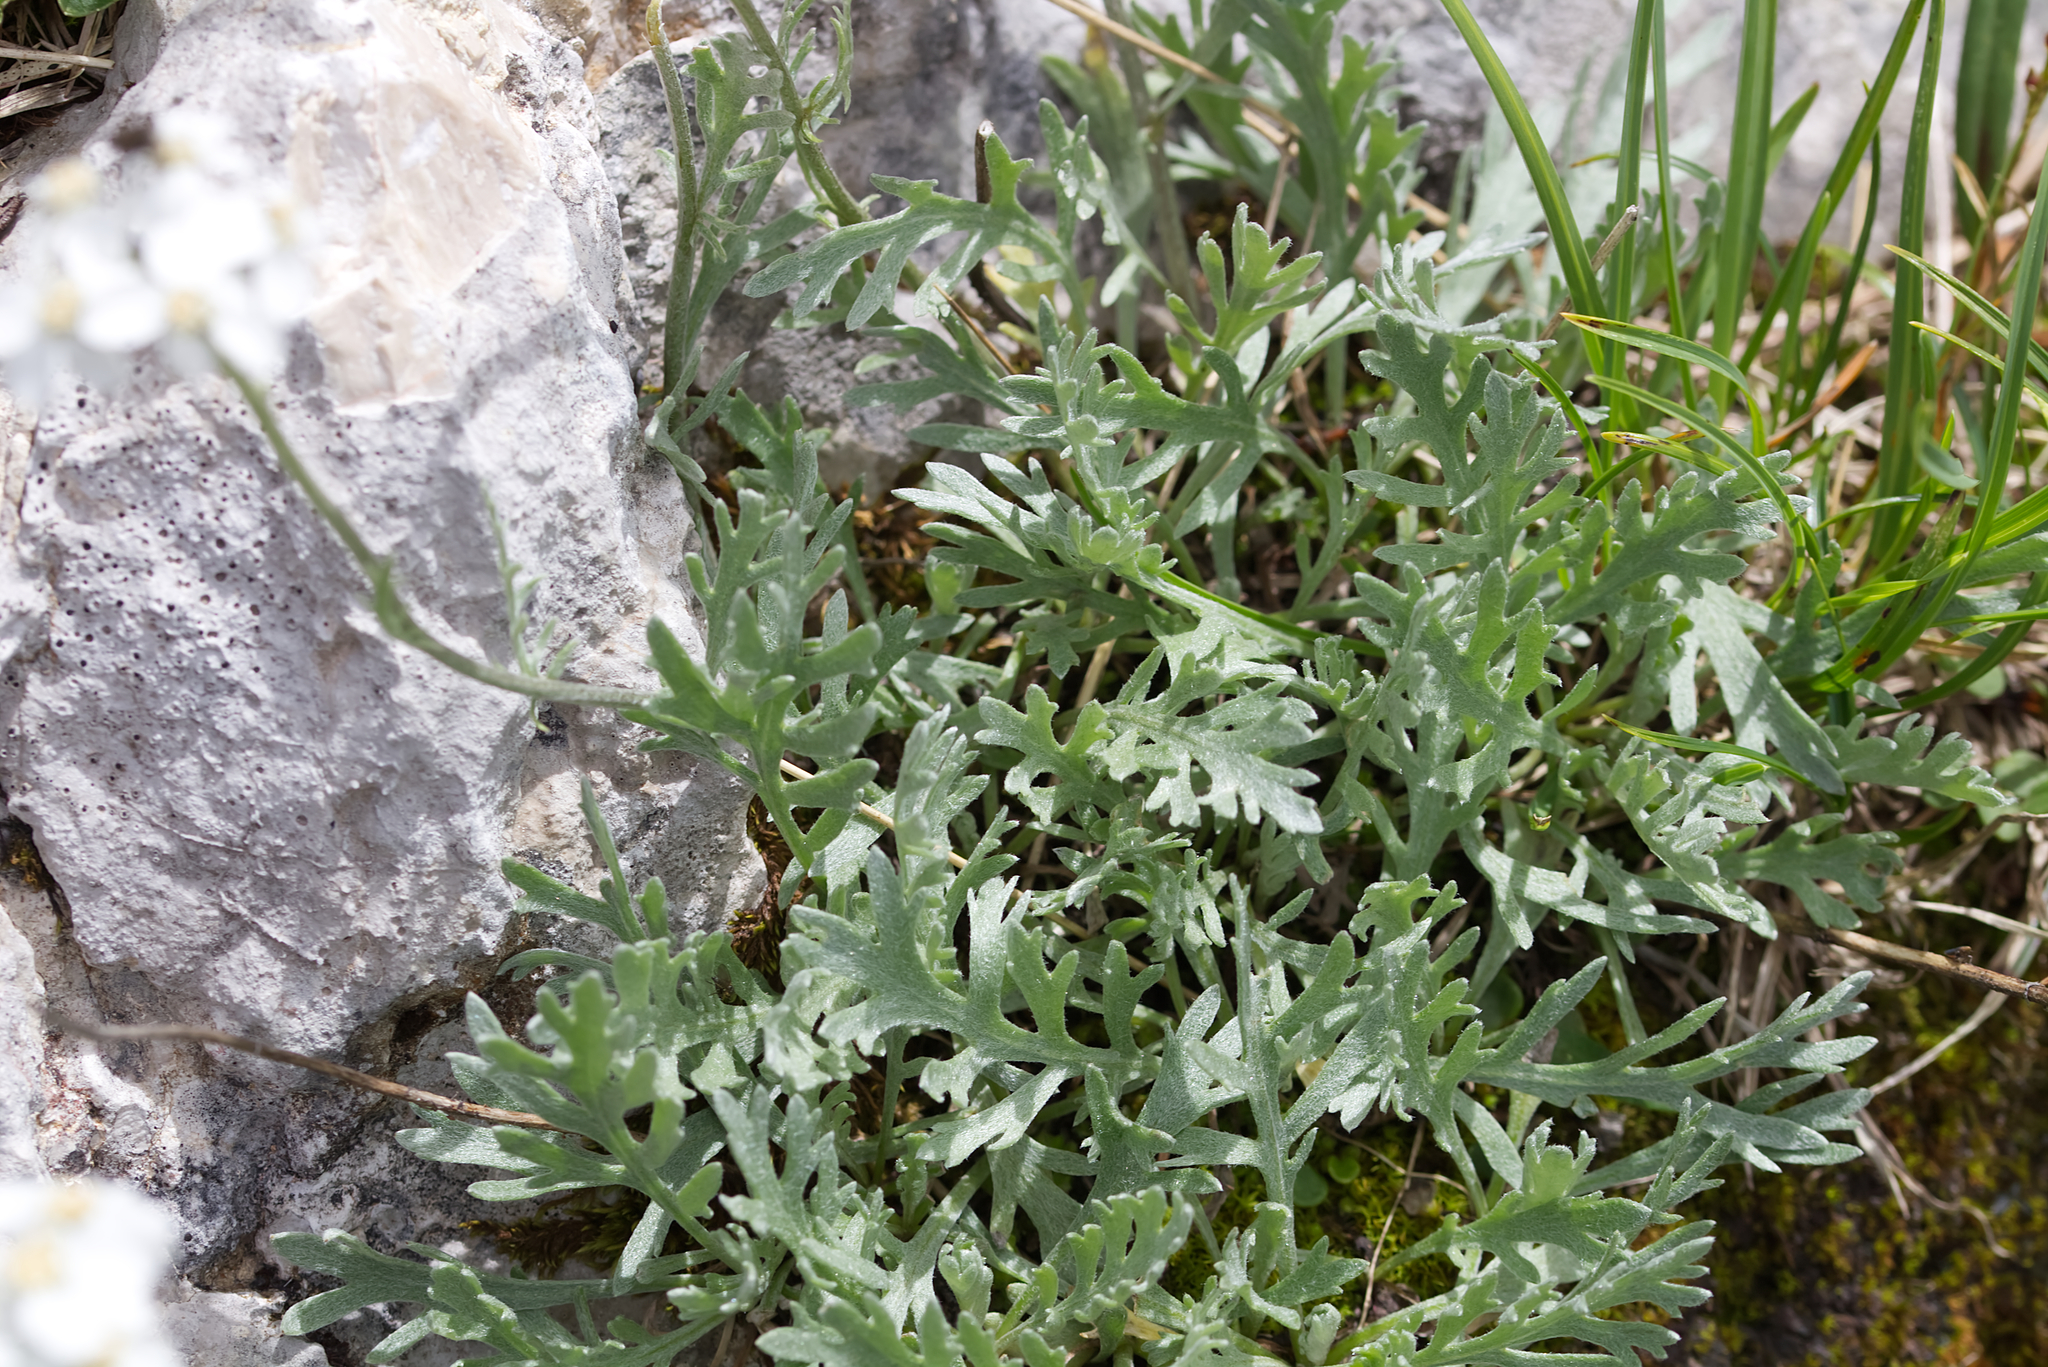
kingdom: Plantae
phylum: Tracheophyta
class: Magnoliopsida
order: Asterales
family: Asteraceae
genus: Achillea
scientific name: Achillea clavennae
